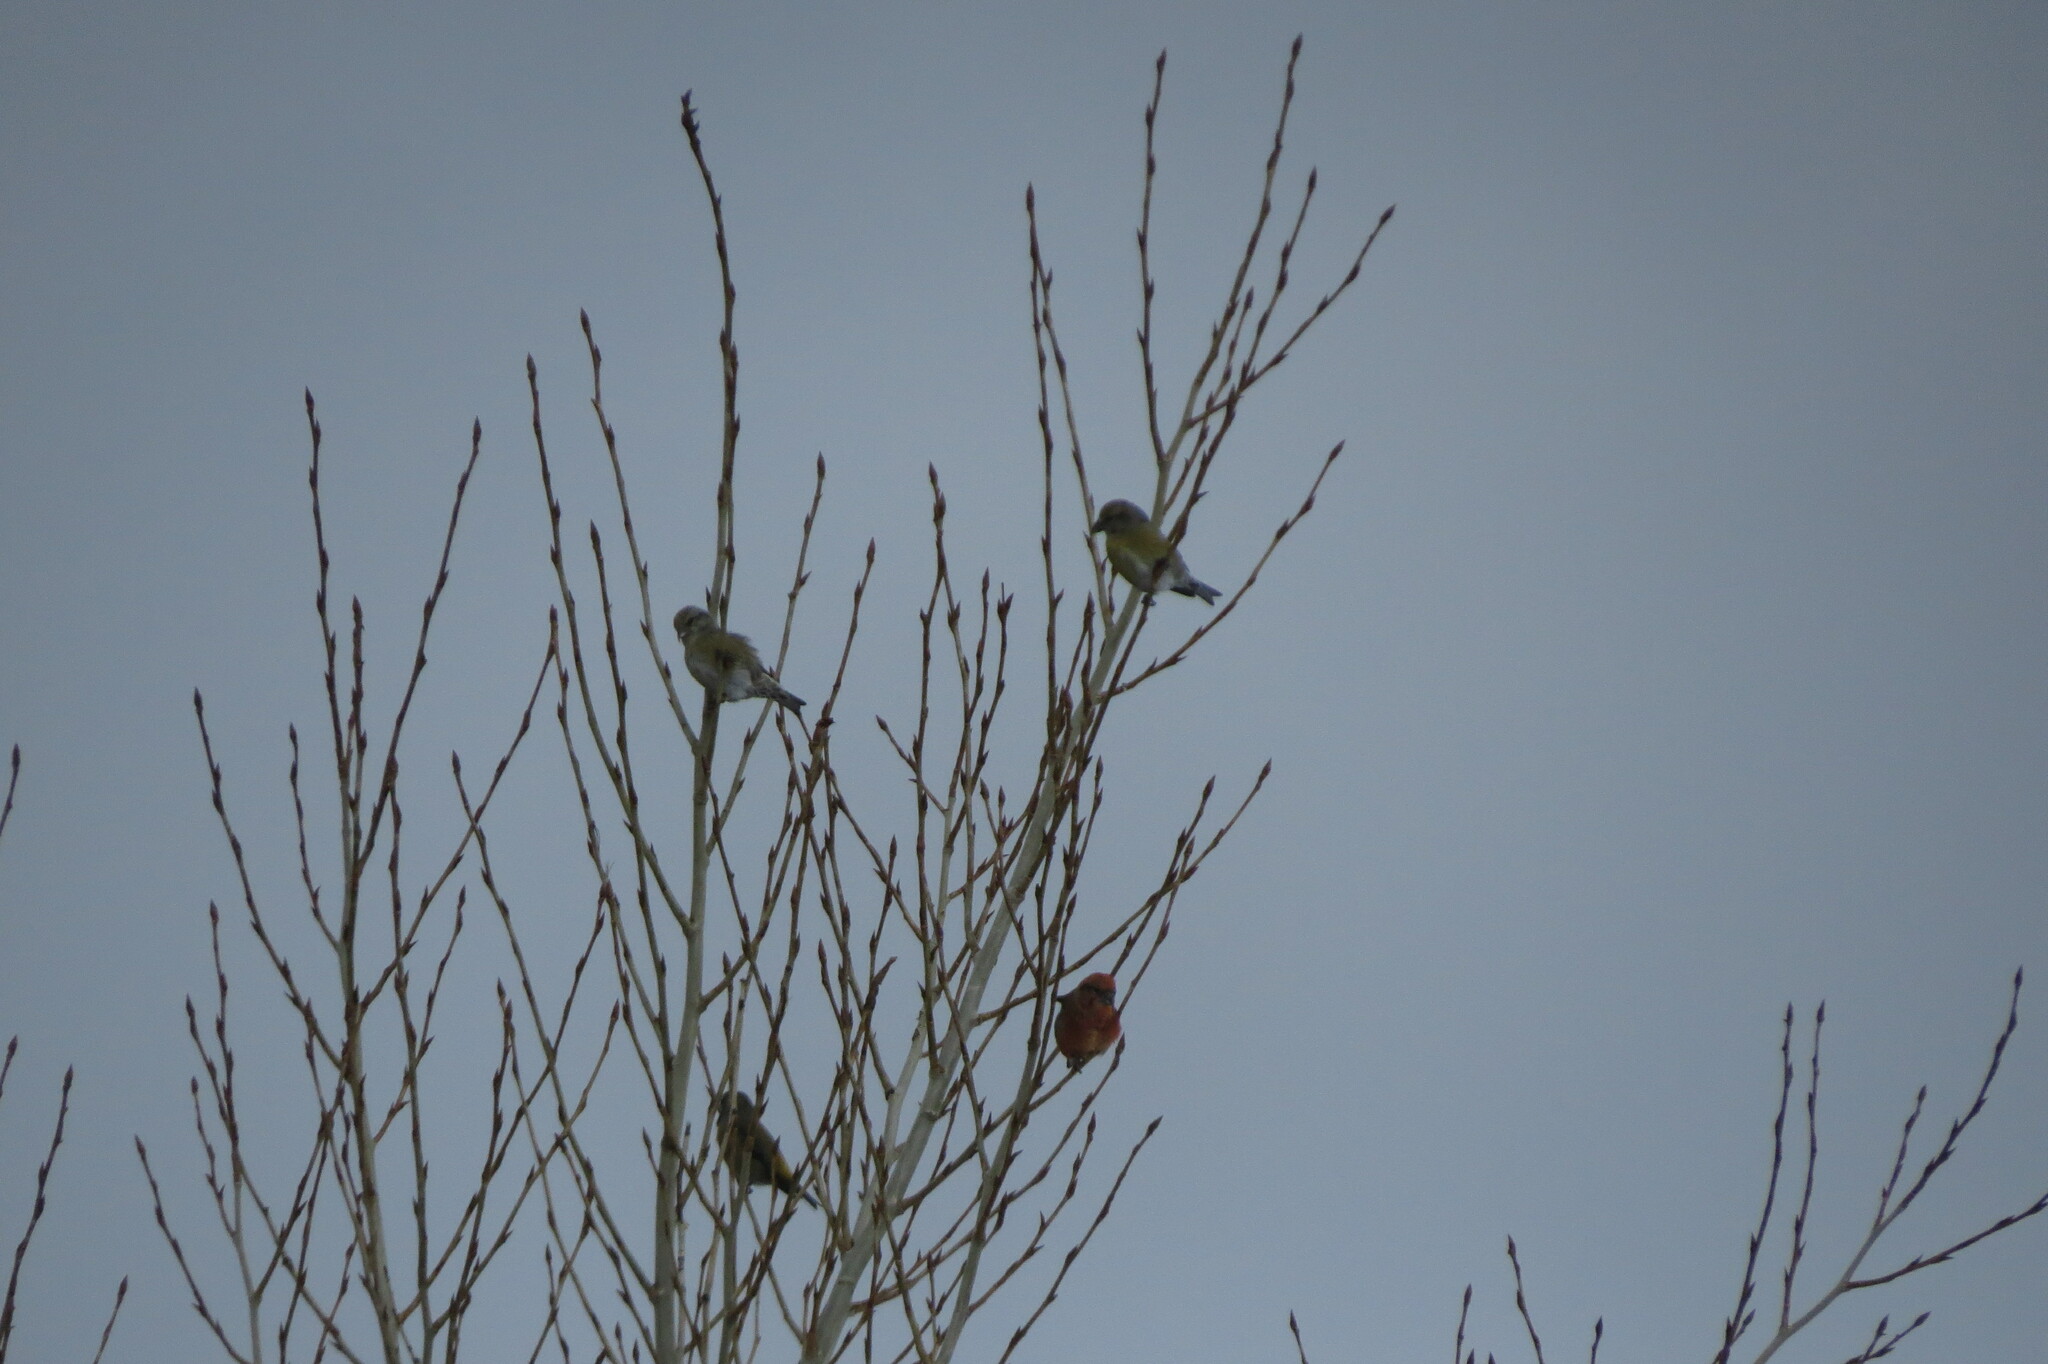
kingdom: Animalia
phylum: Chordata
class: Aves
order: Passeriformes
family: Fringillidae
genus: Loxia
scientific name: Loxia curvirostra
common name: Red crossbill
